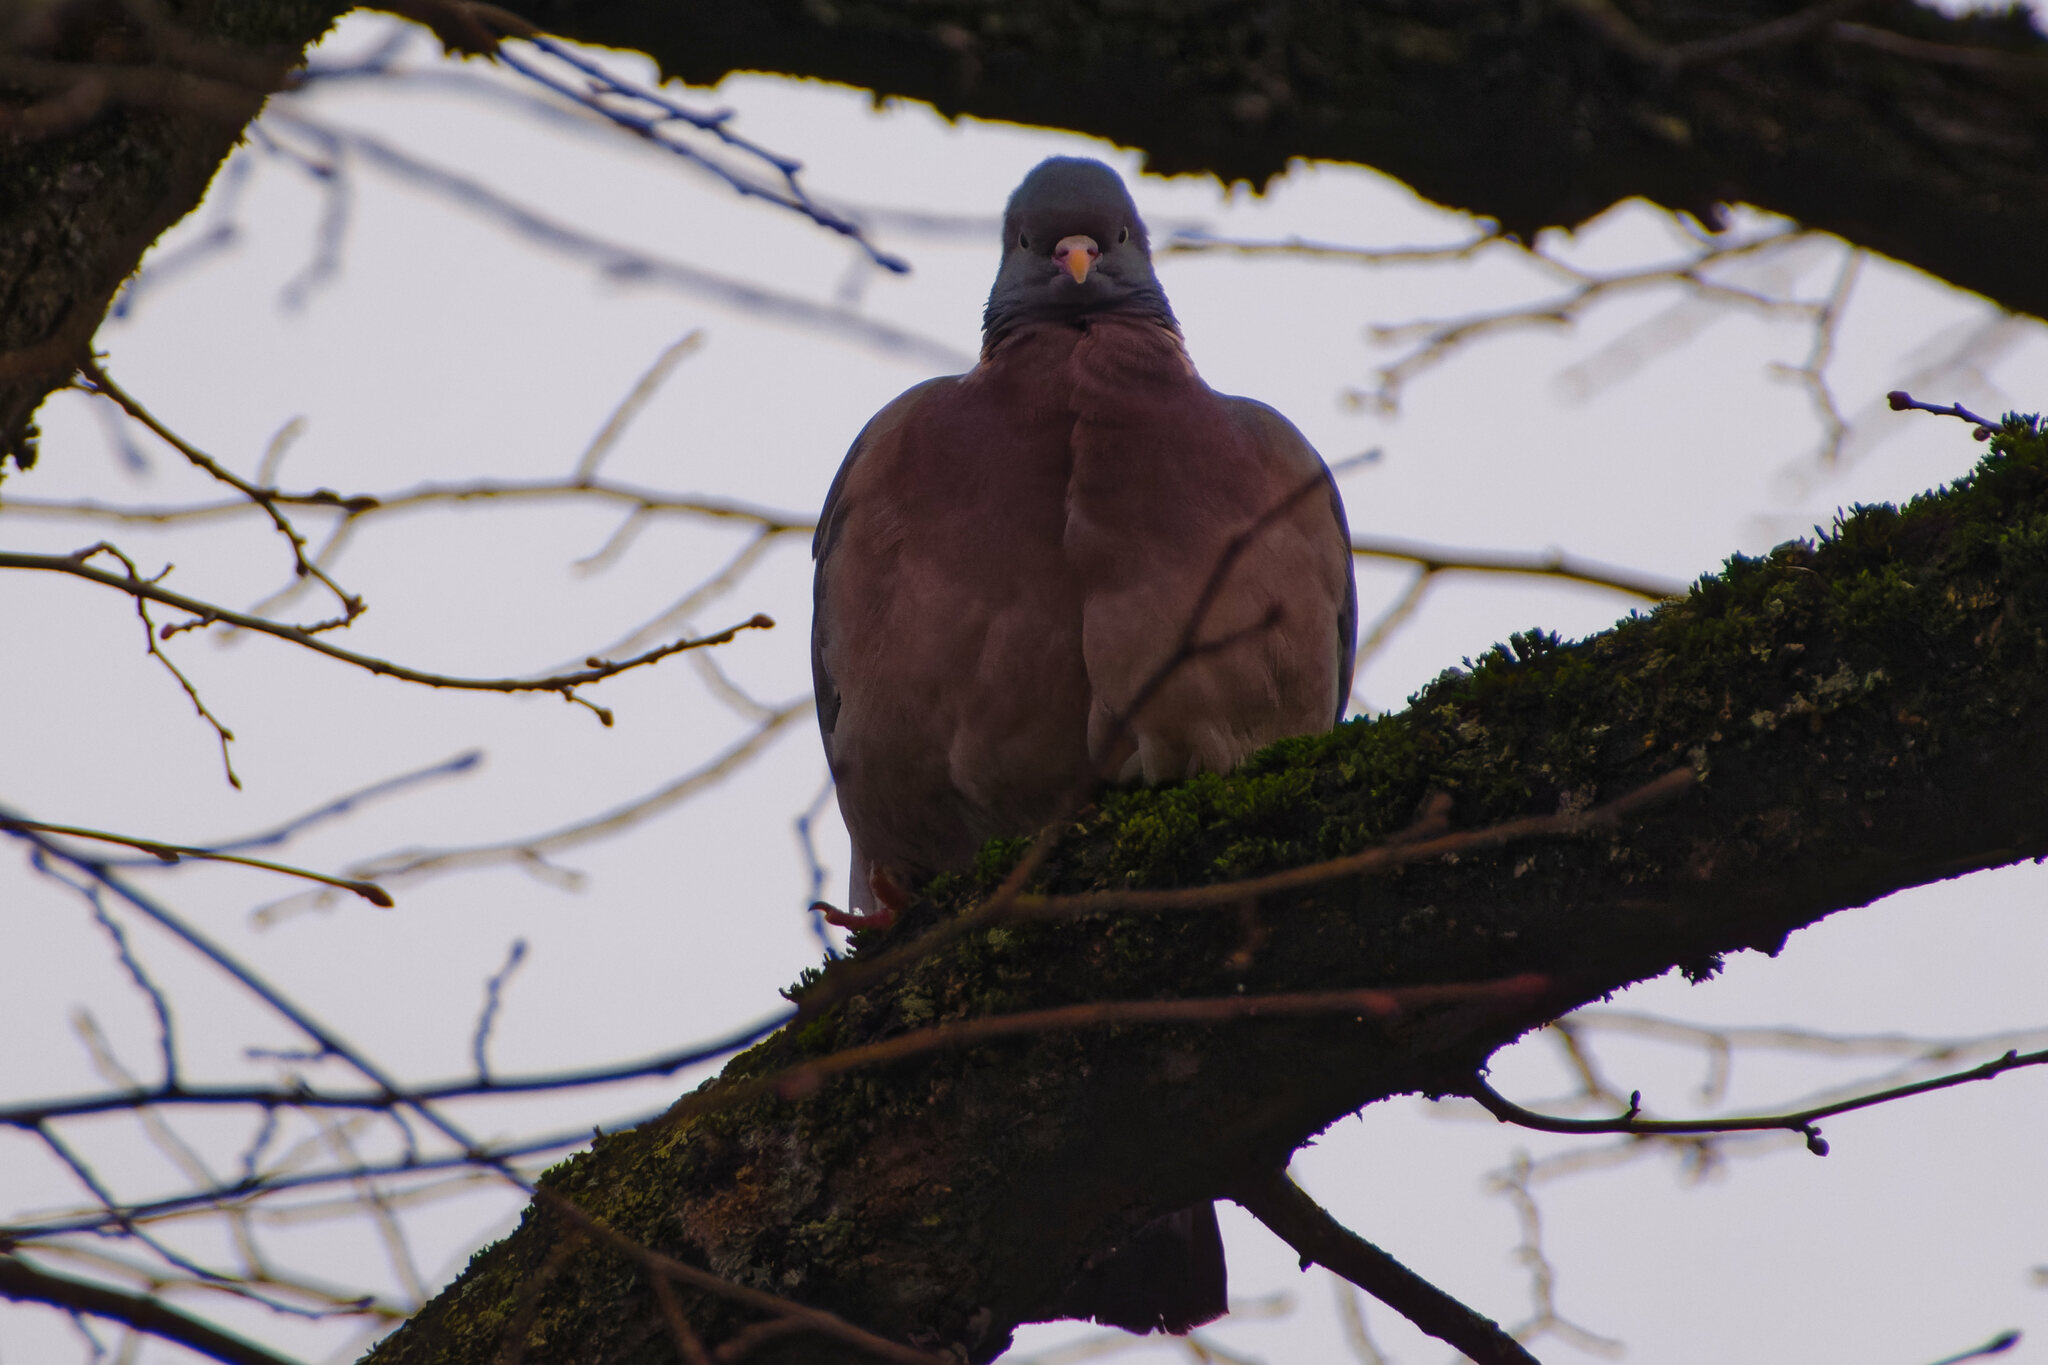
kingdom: Animalia
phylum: Chordata
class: Aves
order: Columbiformes
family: Columbidae
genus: Columba
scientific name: Columba palumbus
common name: Common wood pigeon
